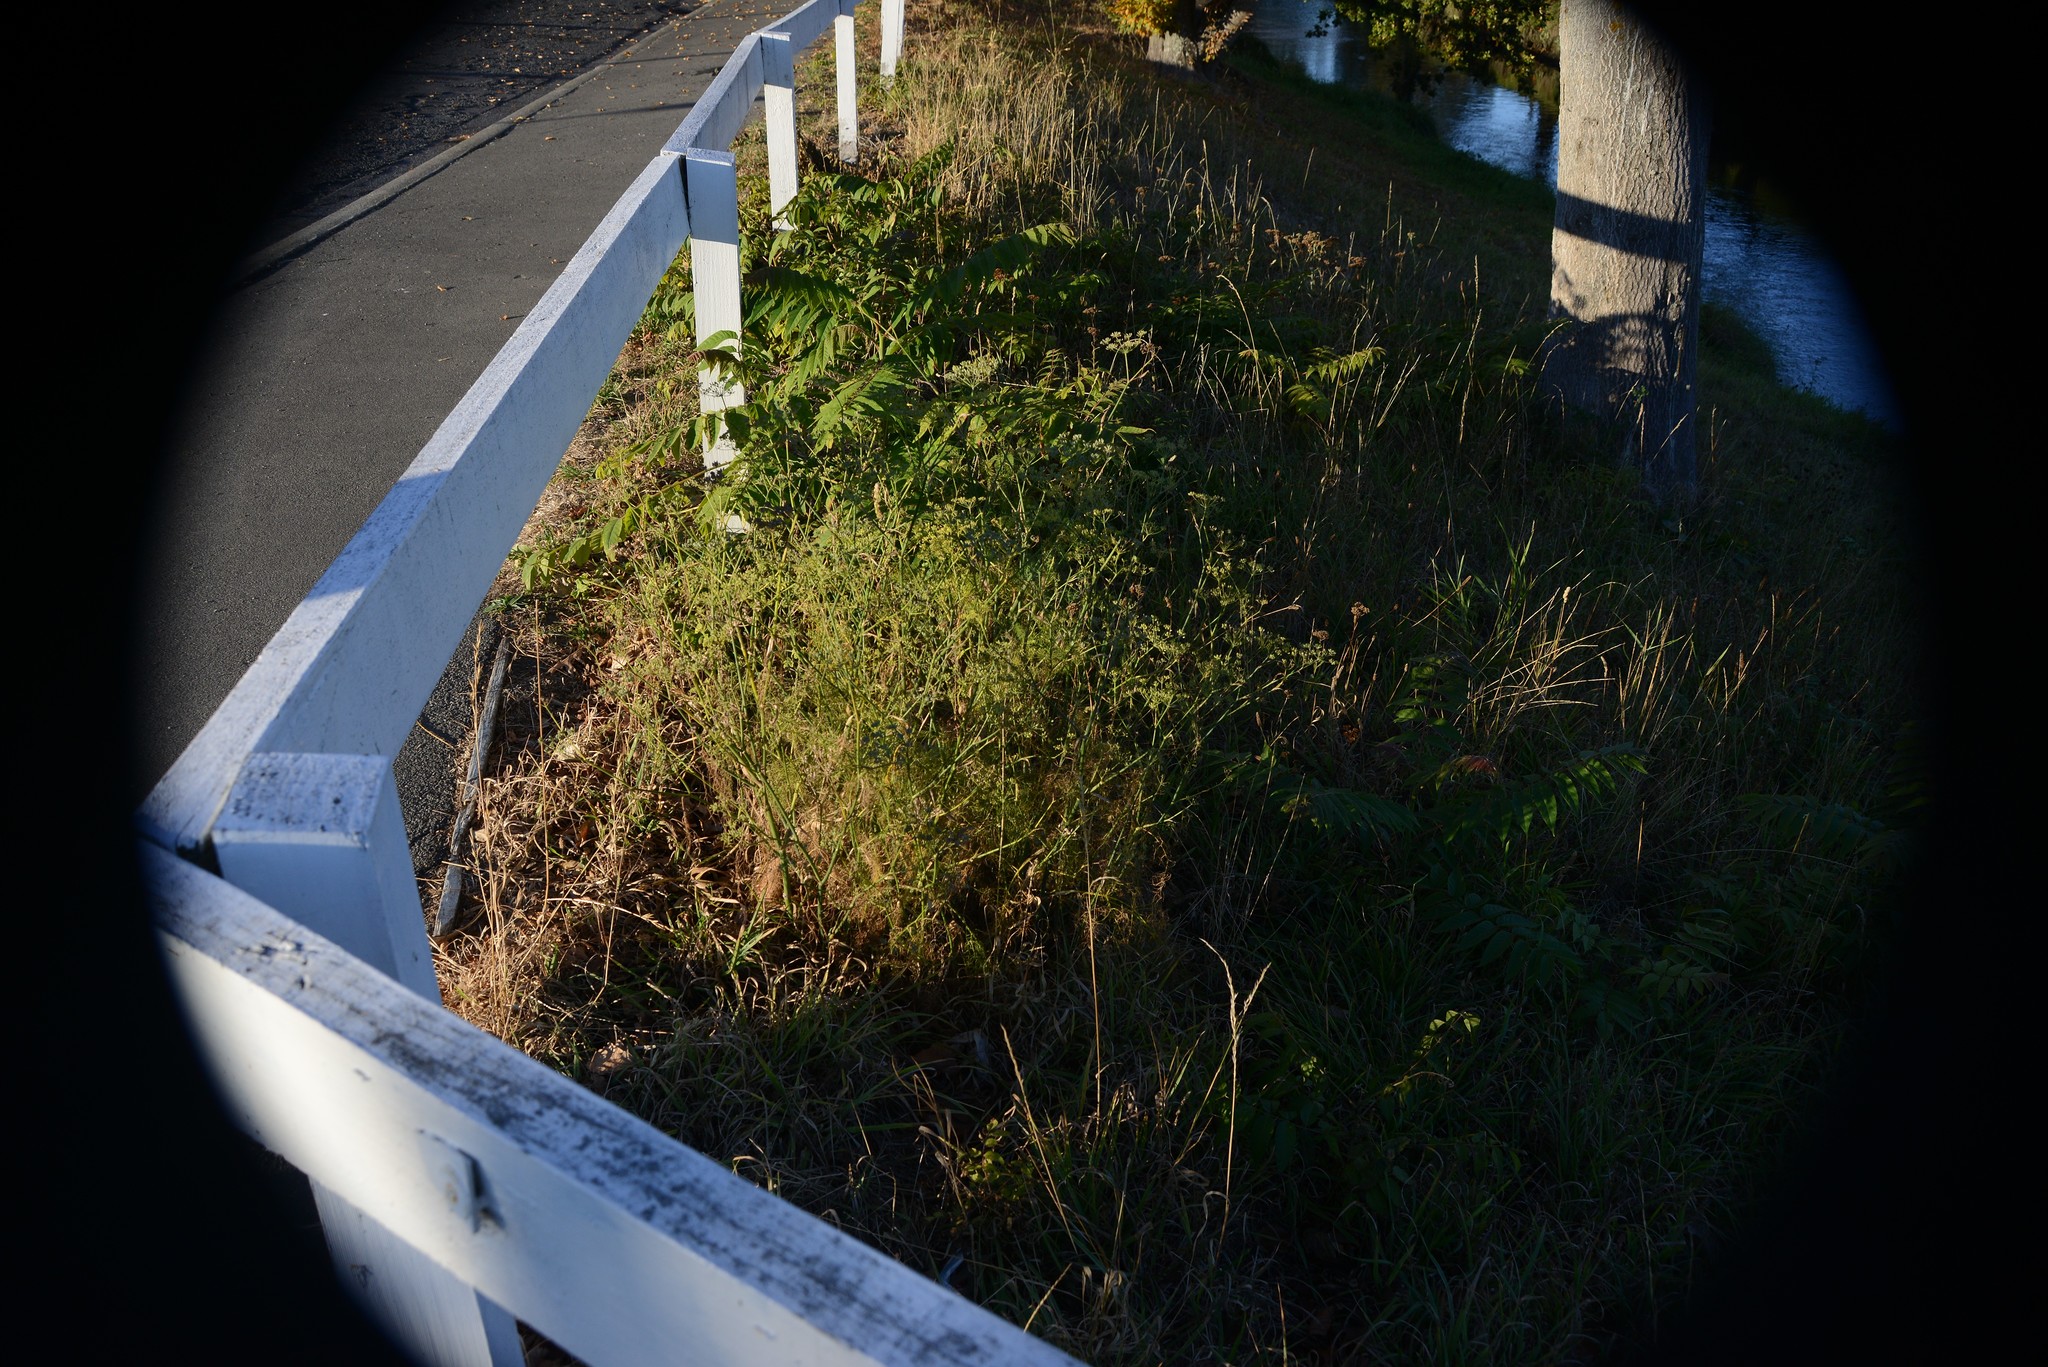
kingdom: Plantae
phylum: Tracheophyta
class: Magnoliopsida
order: Apiales
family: Apiaceae
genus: Foeniculum
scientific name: Foeniculum vulgare
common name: Fennel
